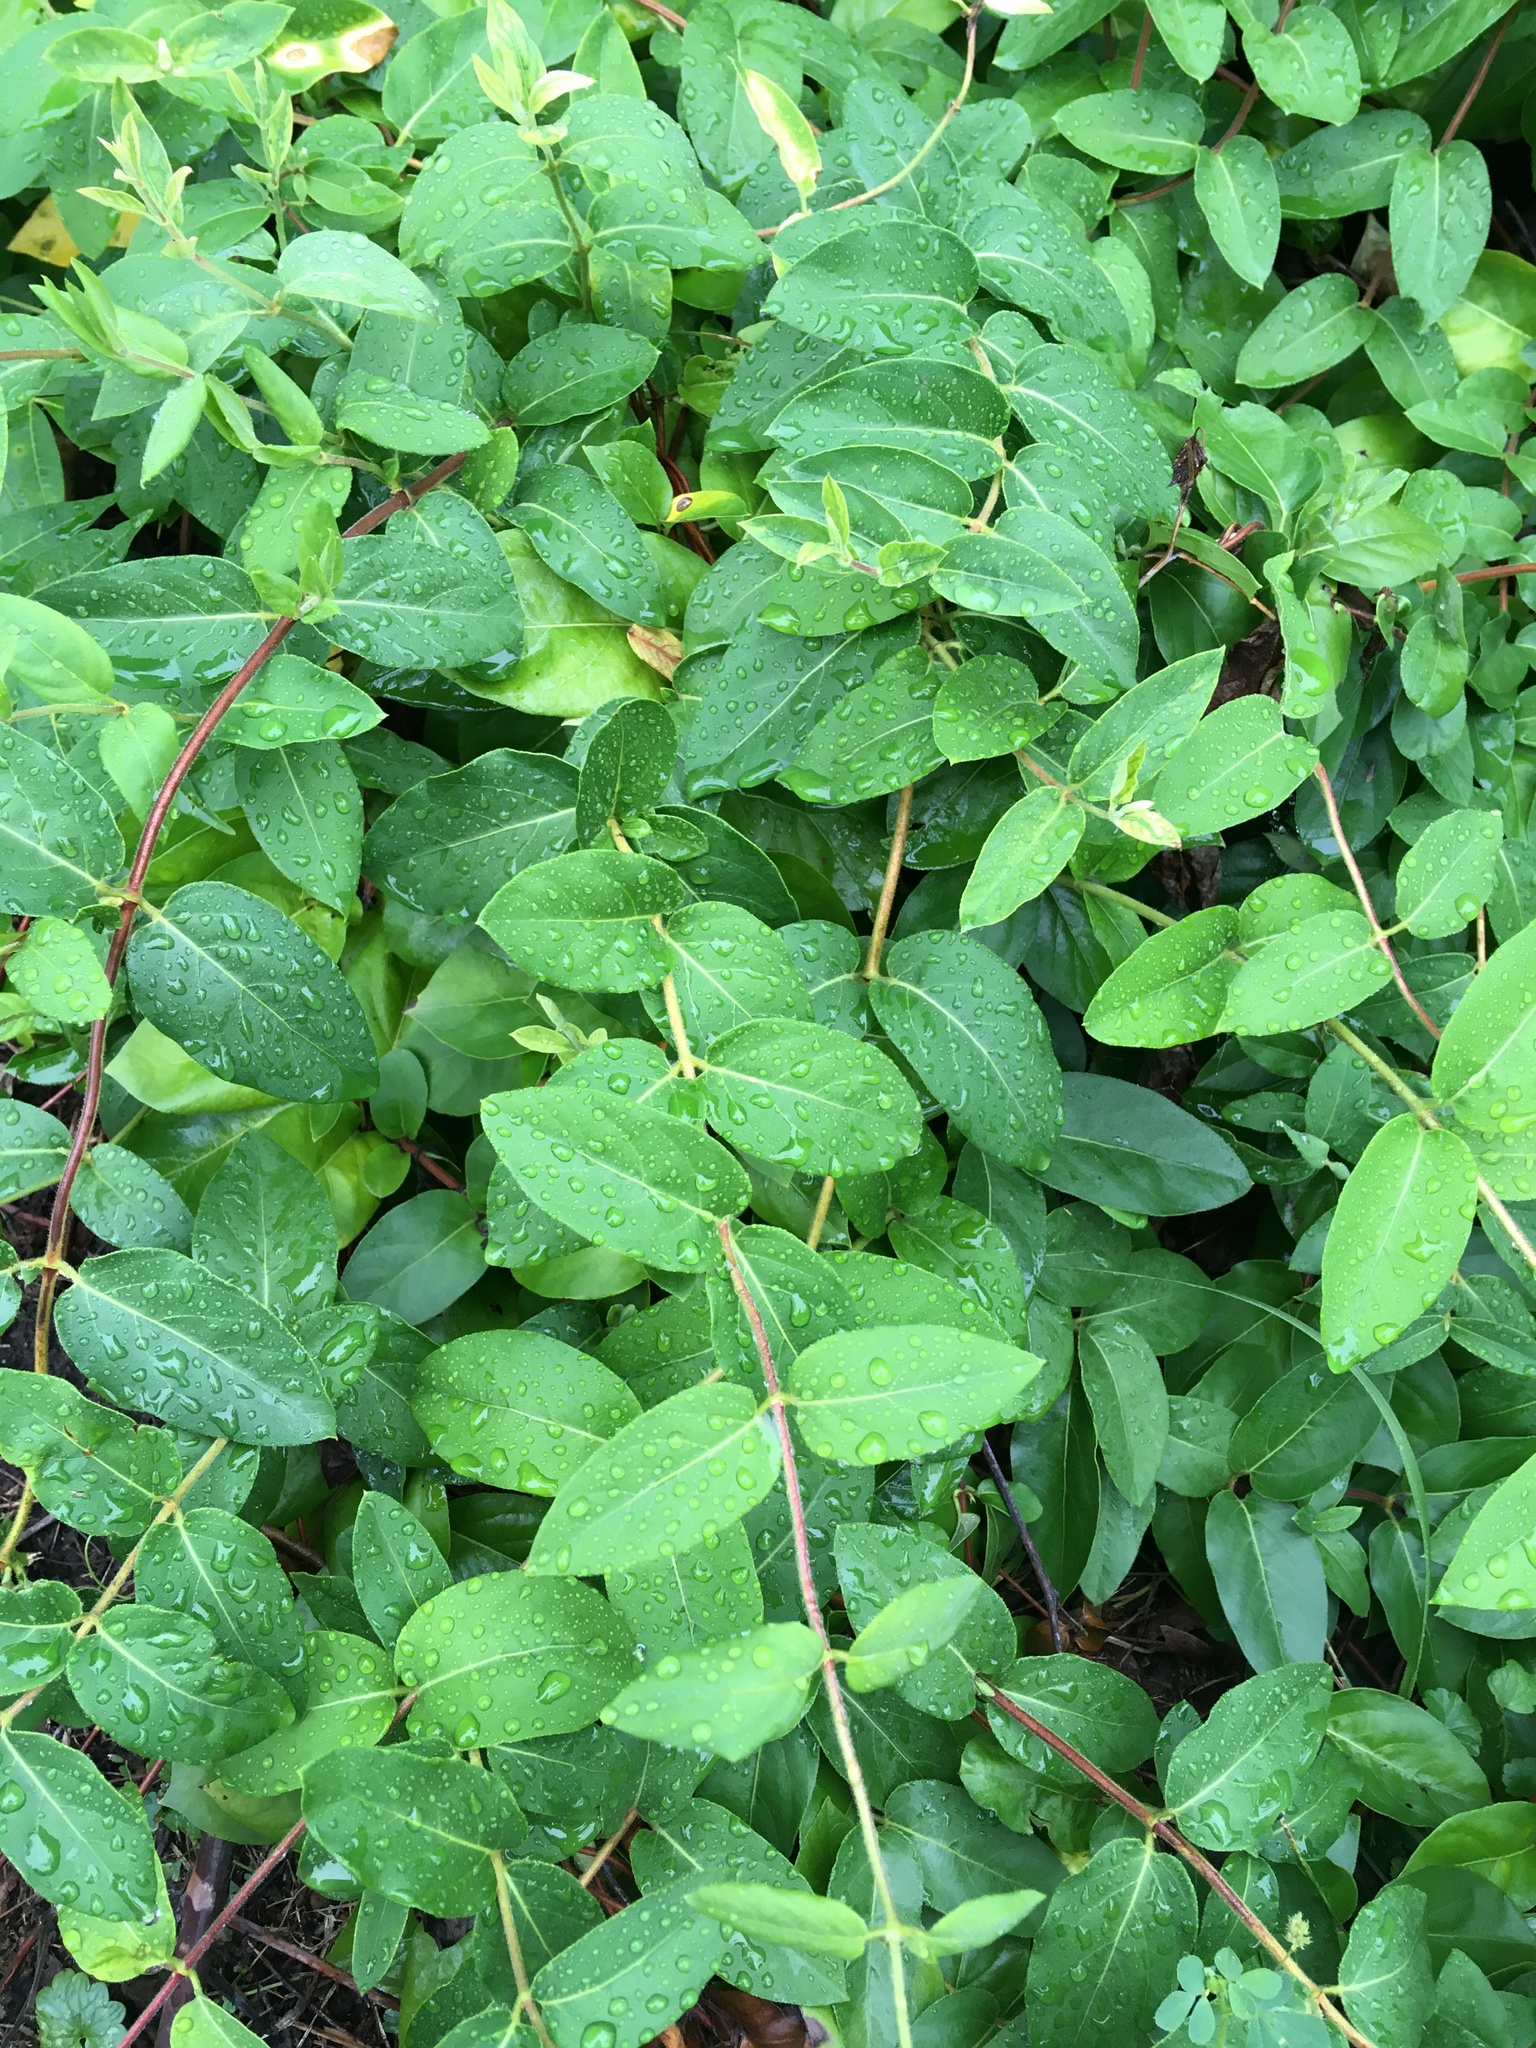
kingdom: Plantae
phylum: Tracheophyta
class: Magnoliopsida
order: Dipsacales
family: Caprifoliaceae
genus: Lonicera
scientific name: Lonicera japonica
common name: Japanese honeysuckle
